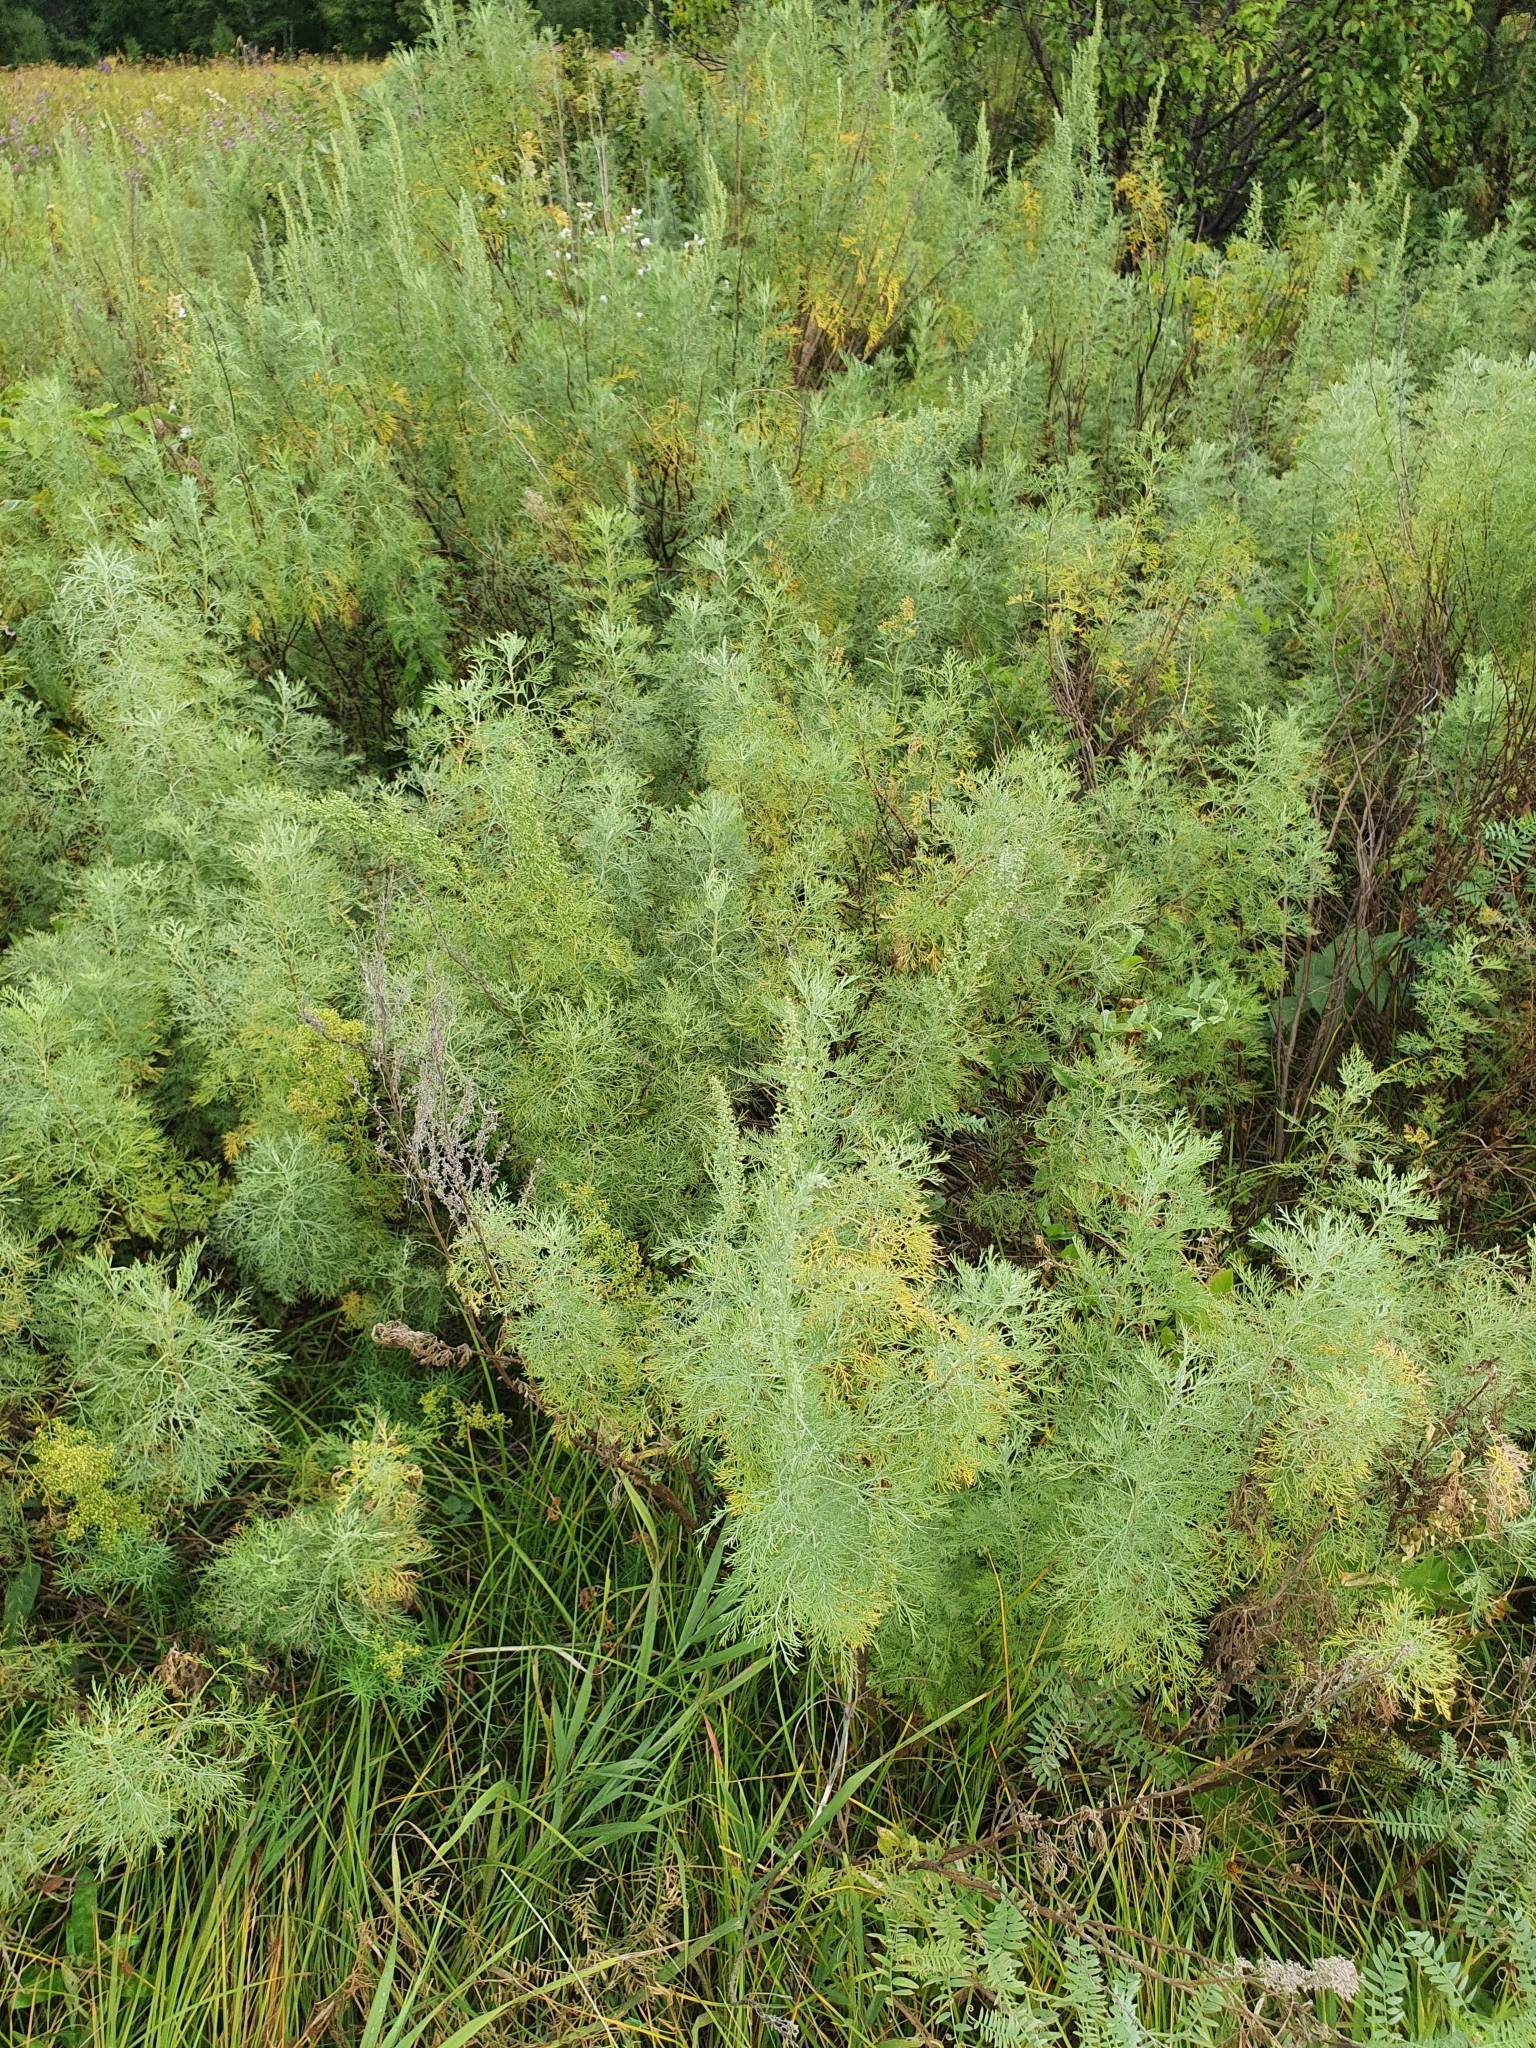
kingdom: Plantae
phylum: Tracheophyta
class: Magnoliopsida
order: Asterales
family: Asteraceae
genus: Artemisia
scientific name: Artemisia abrotanum
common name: Southernwood
